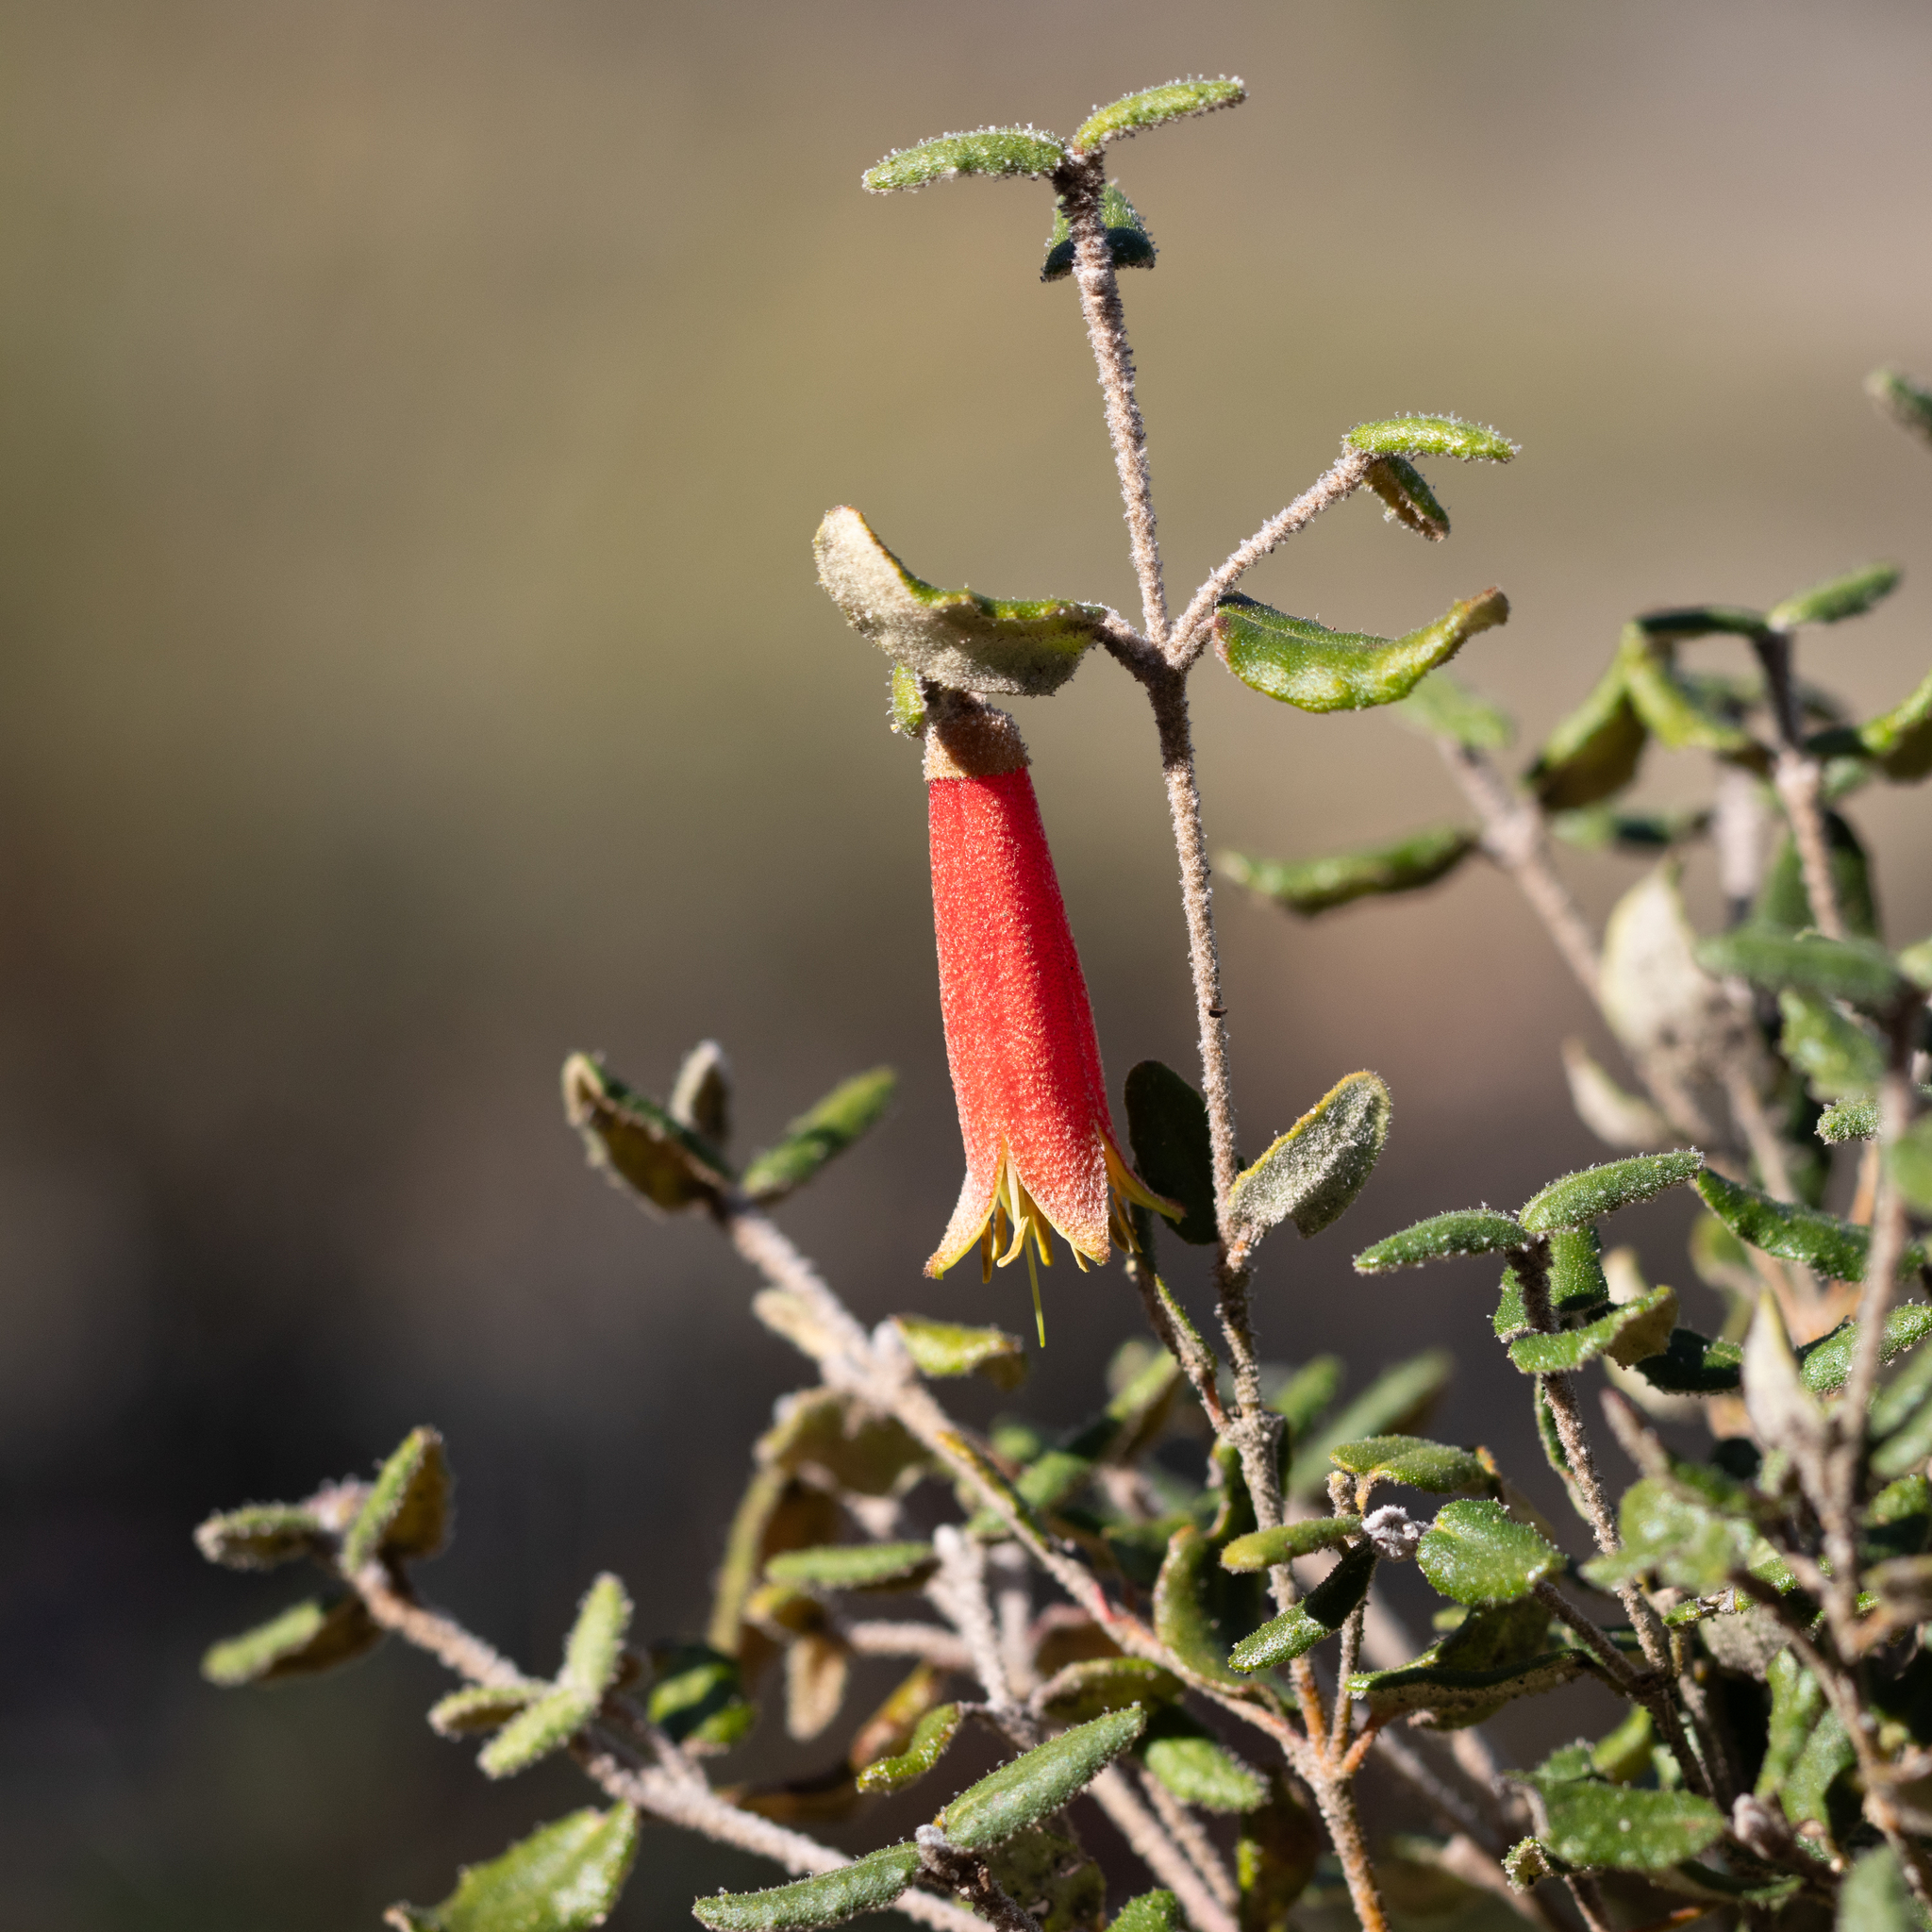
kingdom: Plantae
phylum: Tracheophyta
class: Magnoliopsida
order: Sapindales
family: Rutaceae
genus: Correa
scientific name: Correa reflexa
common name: Common correa
